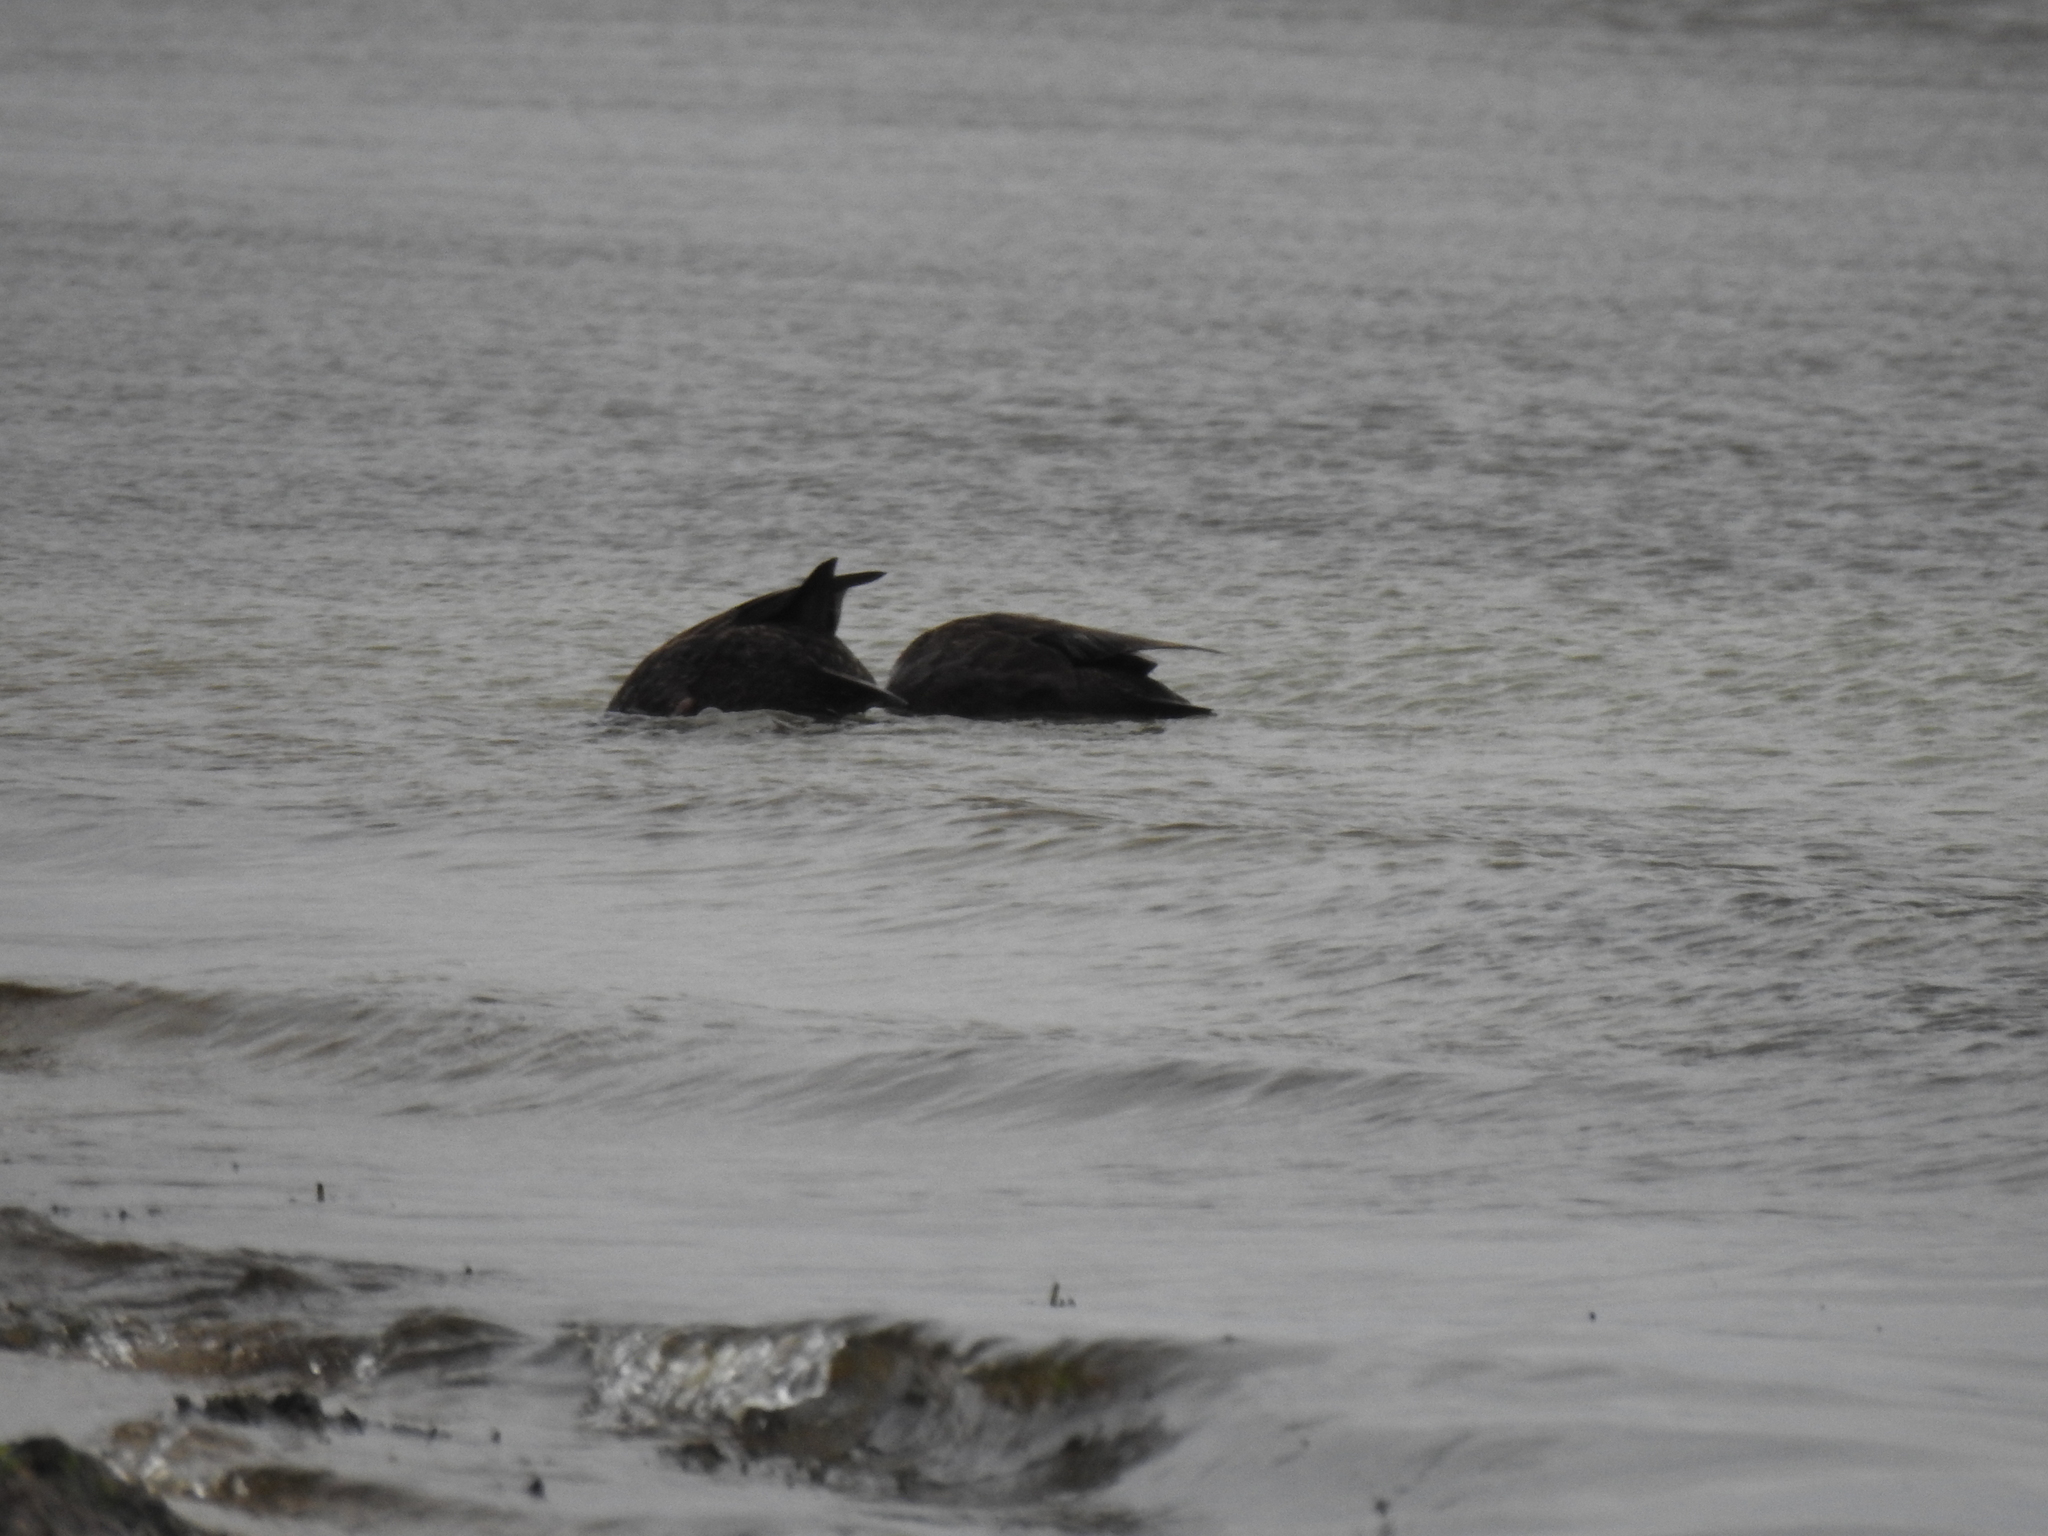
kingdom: Animalia
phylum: Chordata
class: Aves
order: Anseriformes
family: Anatidae
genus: Anas
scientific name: Anas rubripes
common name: American black duck
